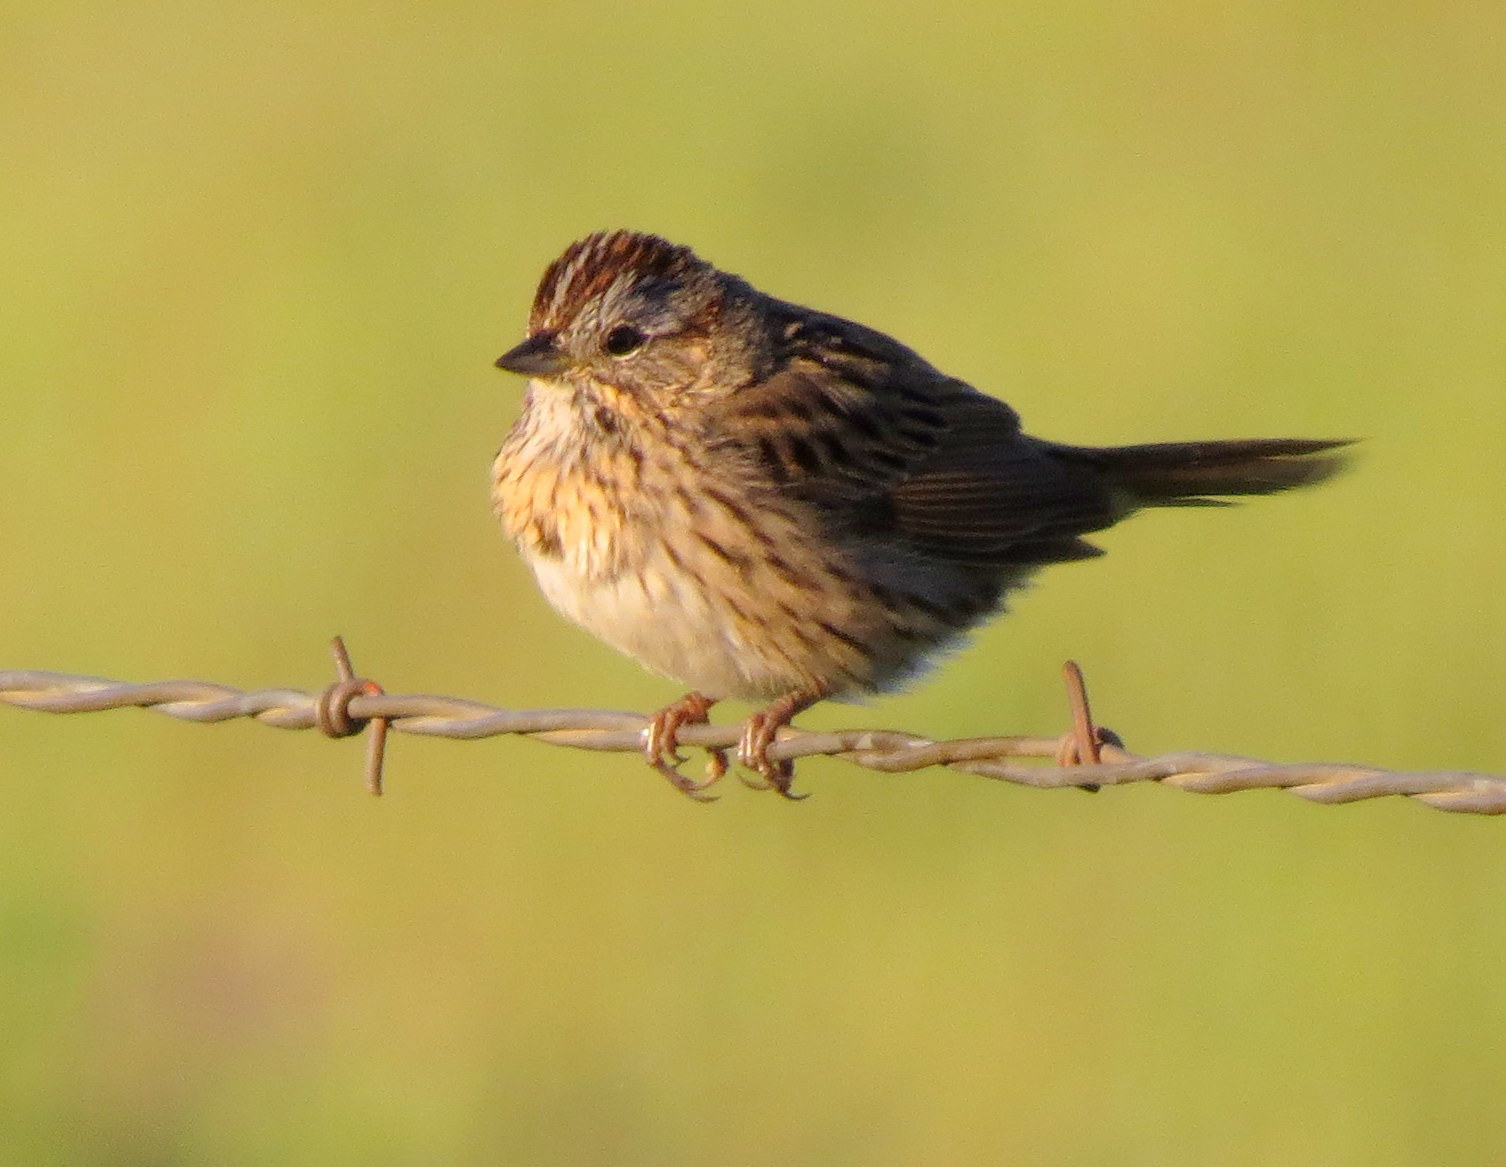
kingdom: Animalia
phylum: Chordata
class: Aves
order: Passeriformes
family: Passerellidae
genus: Melospiza
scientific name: Melospiza lincolnii
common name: Lincoln's sparrow
